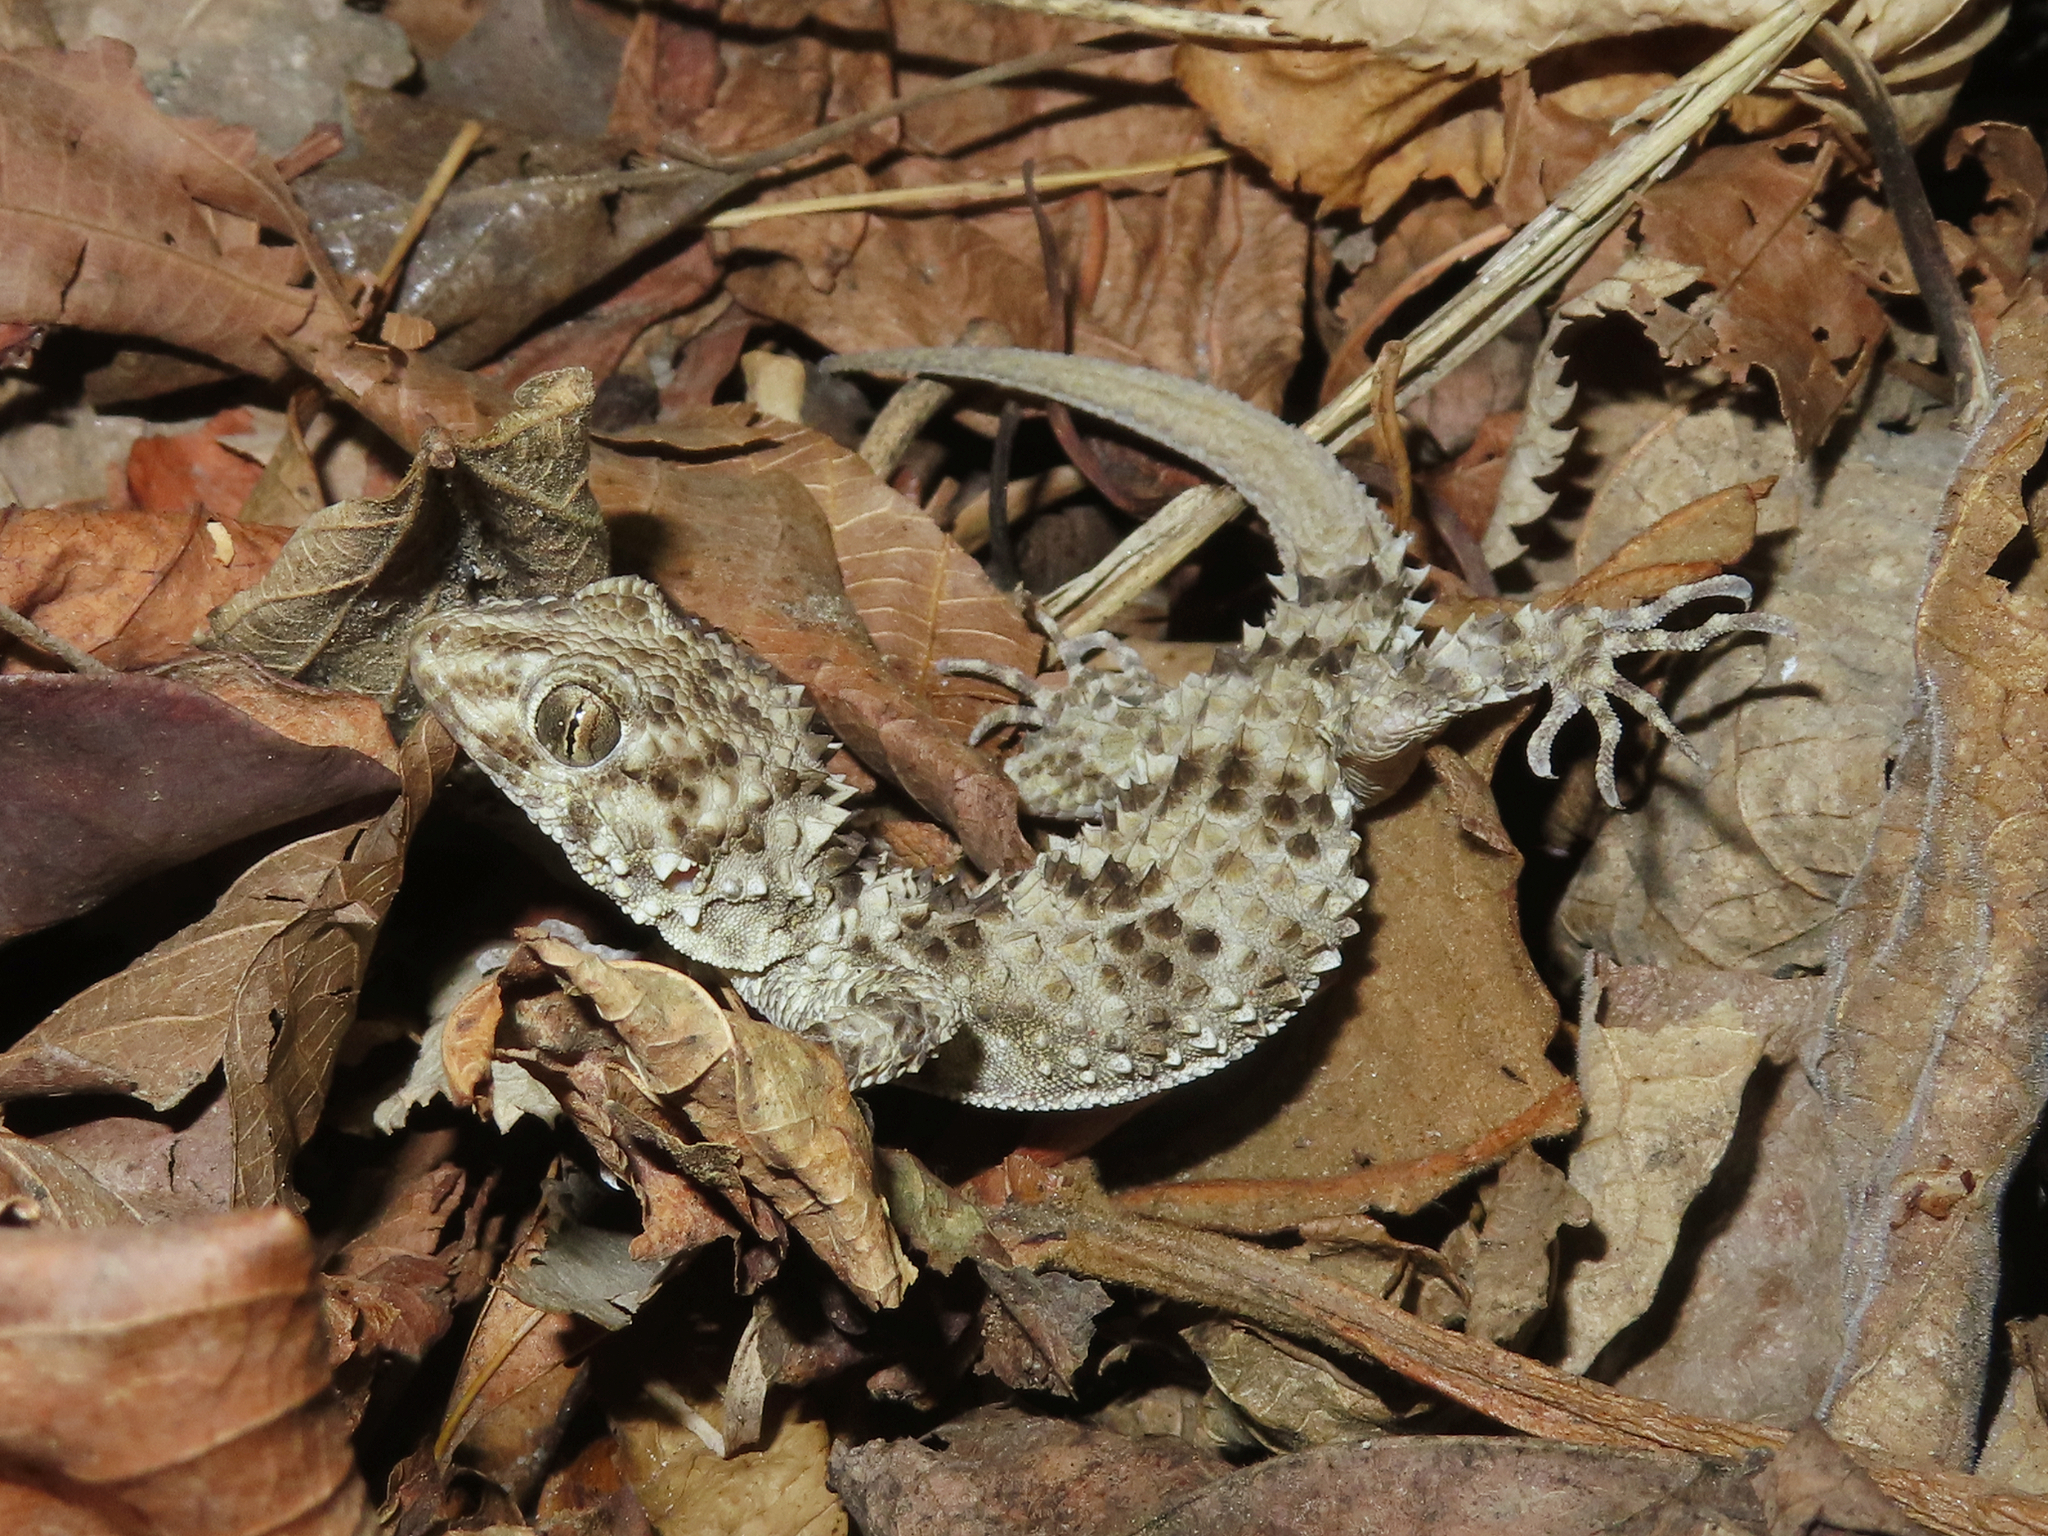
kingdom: Animalia
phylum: Chordata
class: Squamata
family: Gekkonidae
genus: Tenuidactylus
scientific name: Tenuidactylus caspius
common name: Caspian bent-toed gecko
